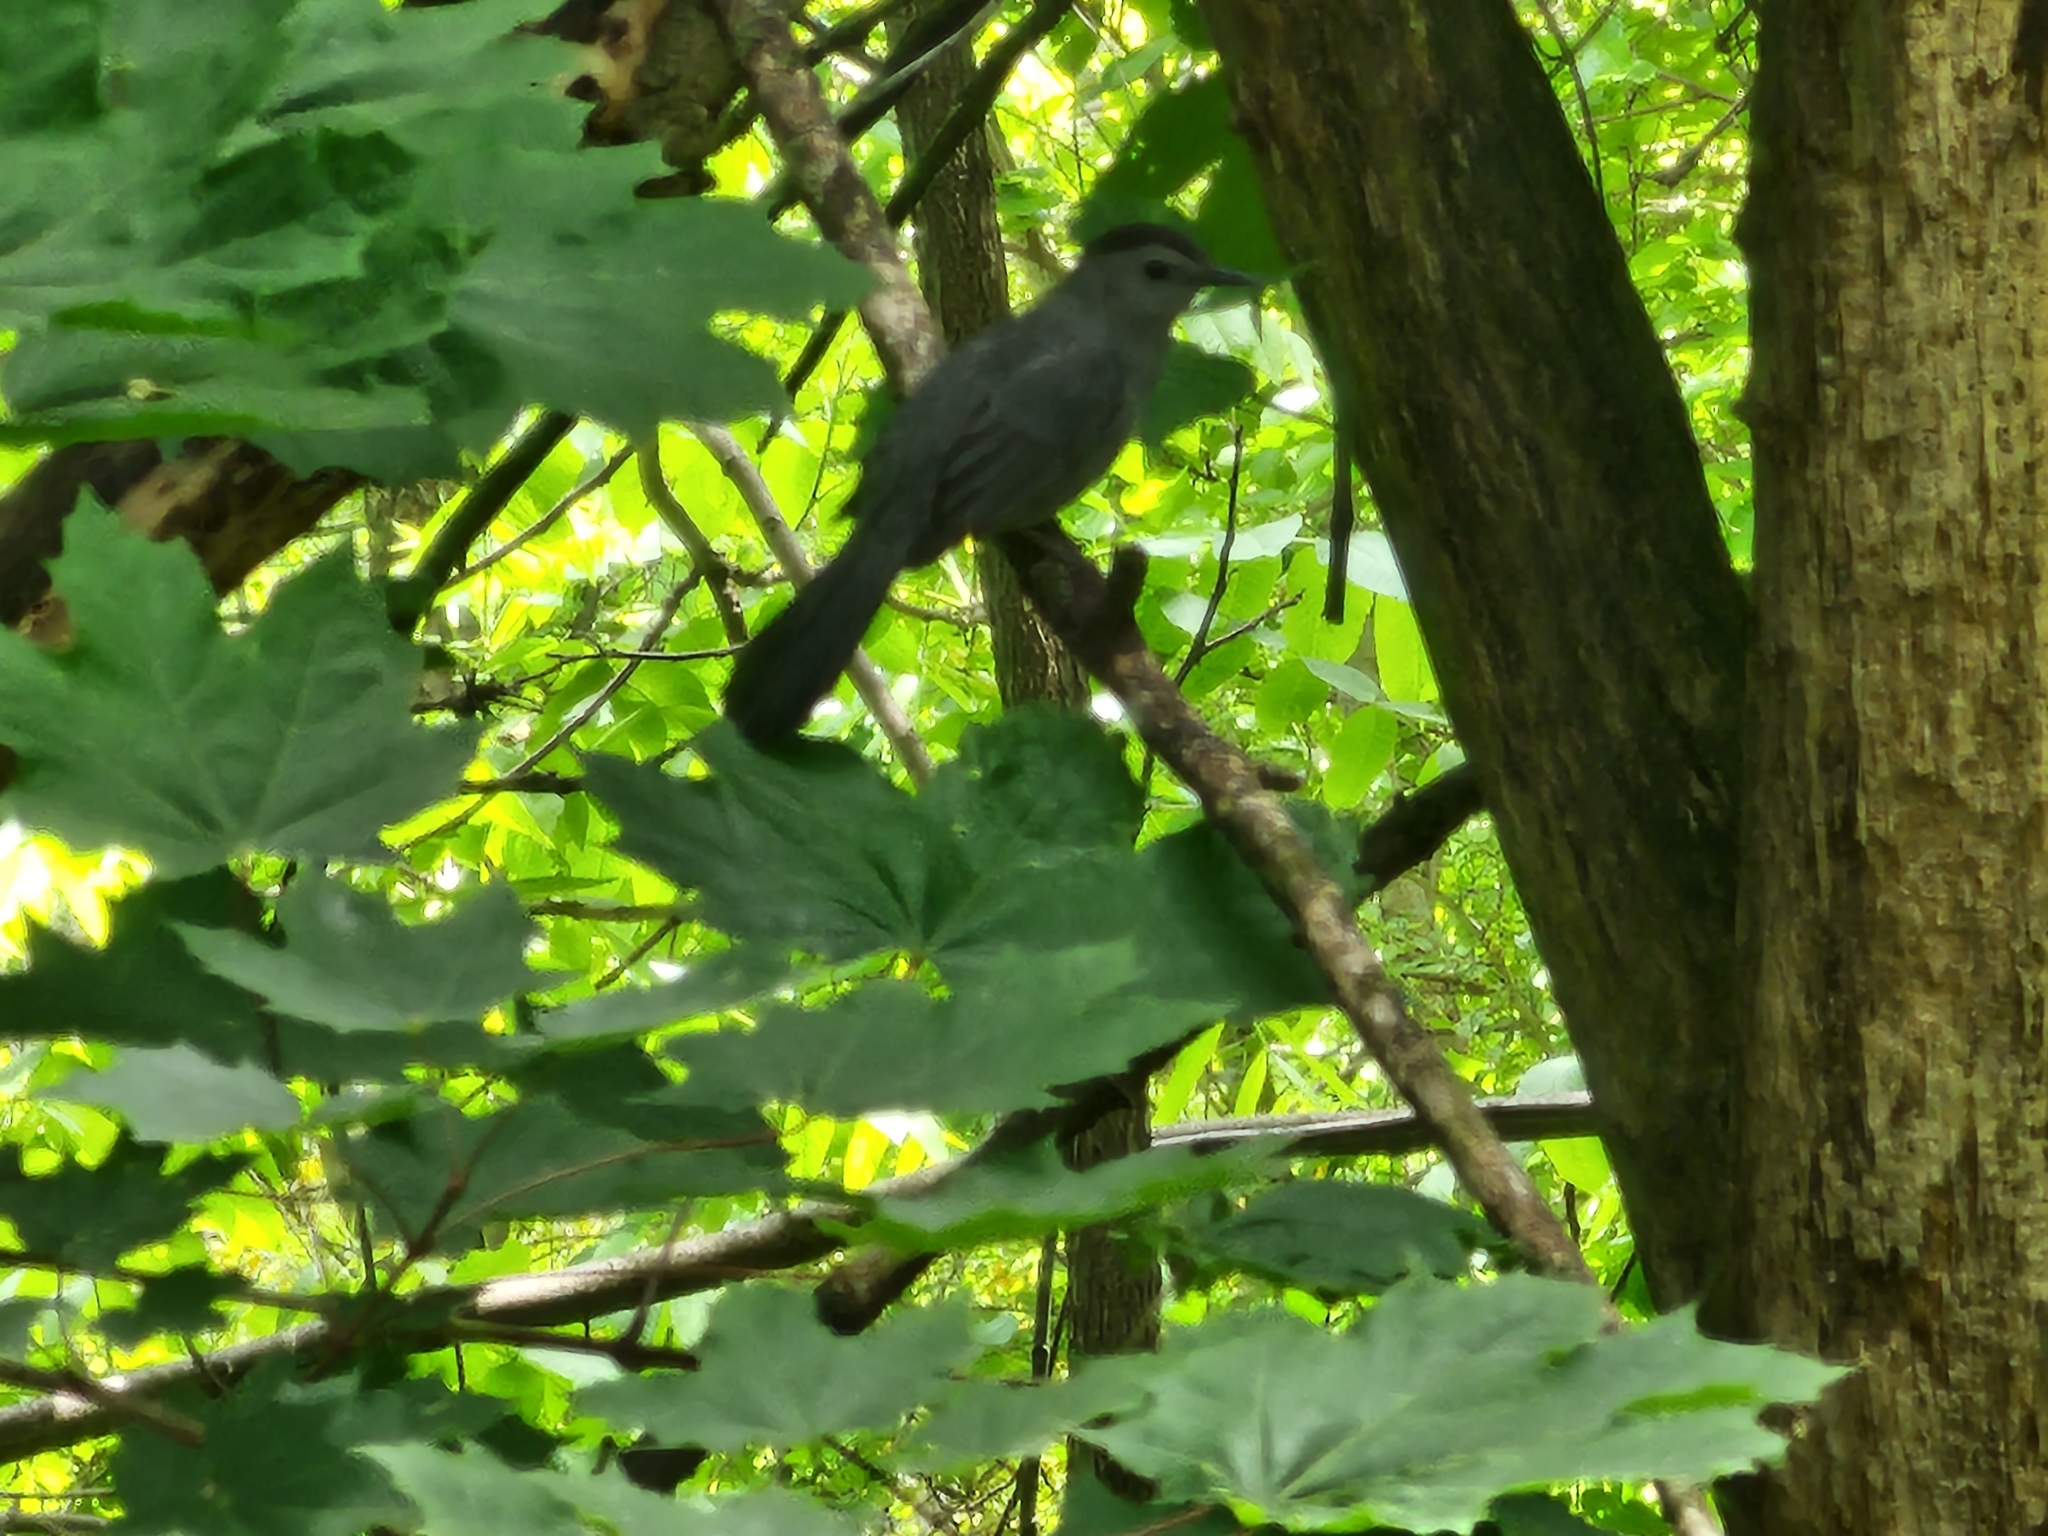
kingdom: Animalia
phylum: Chordata
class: Aves
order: Passeriformes
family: Mimidae
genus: Dumetella
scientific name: Dumetella carolinensis
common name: Gray catbird
